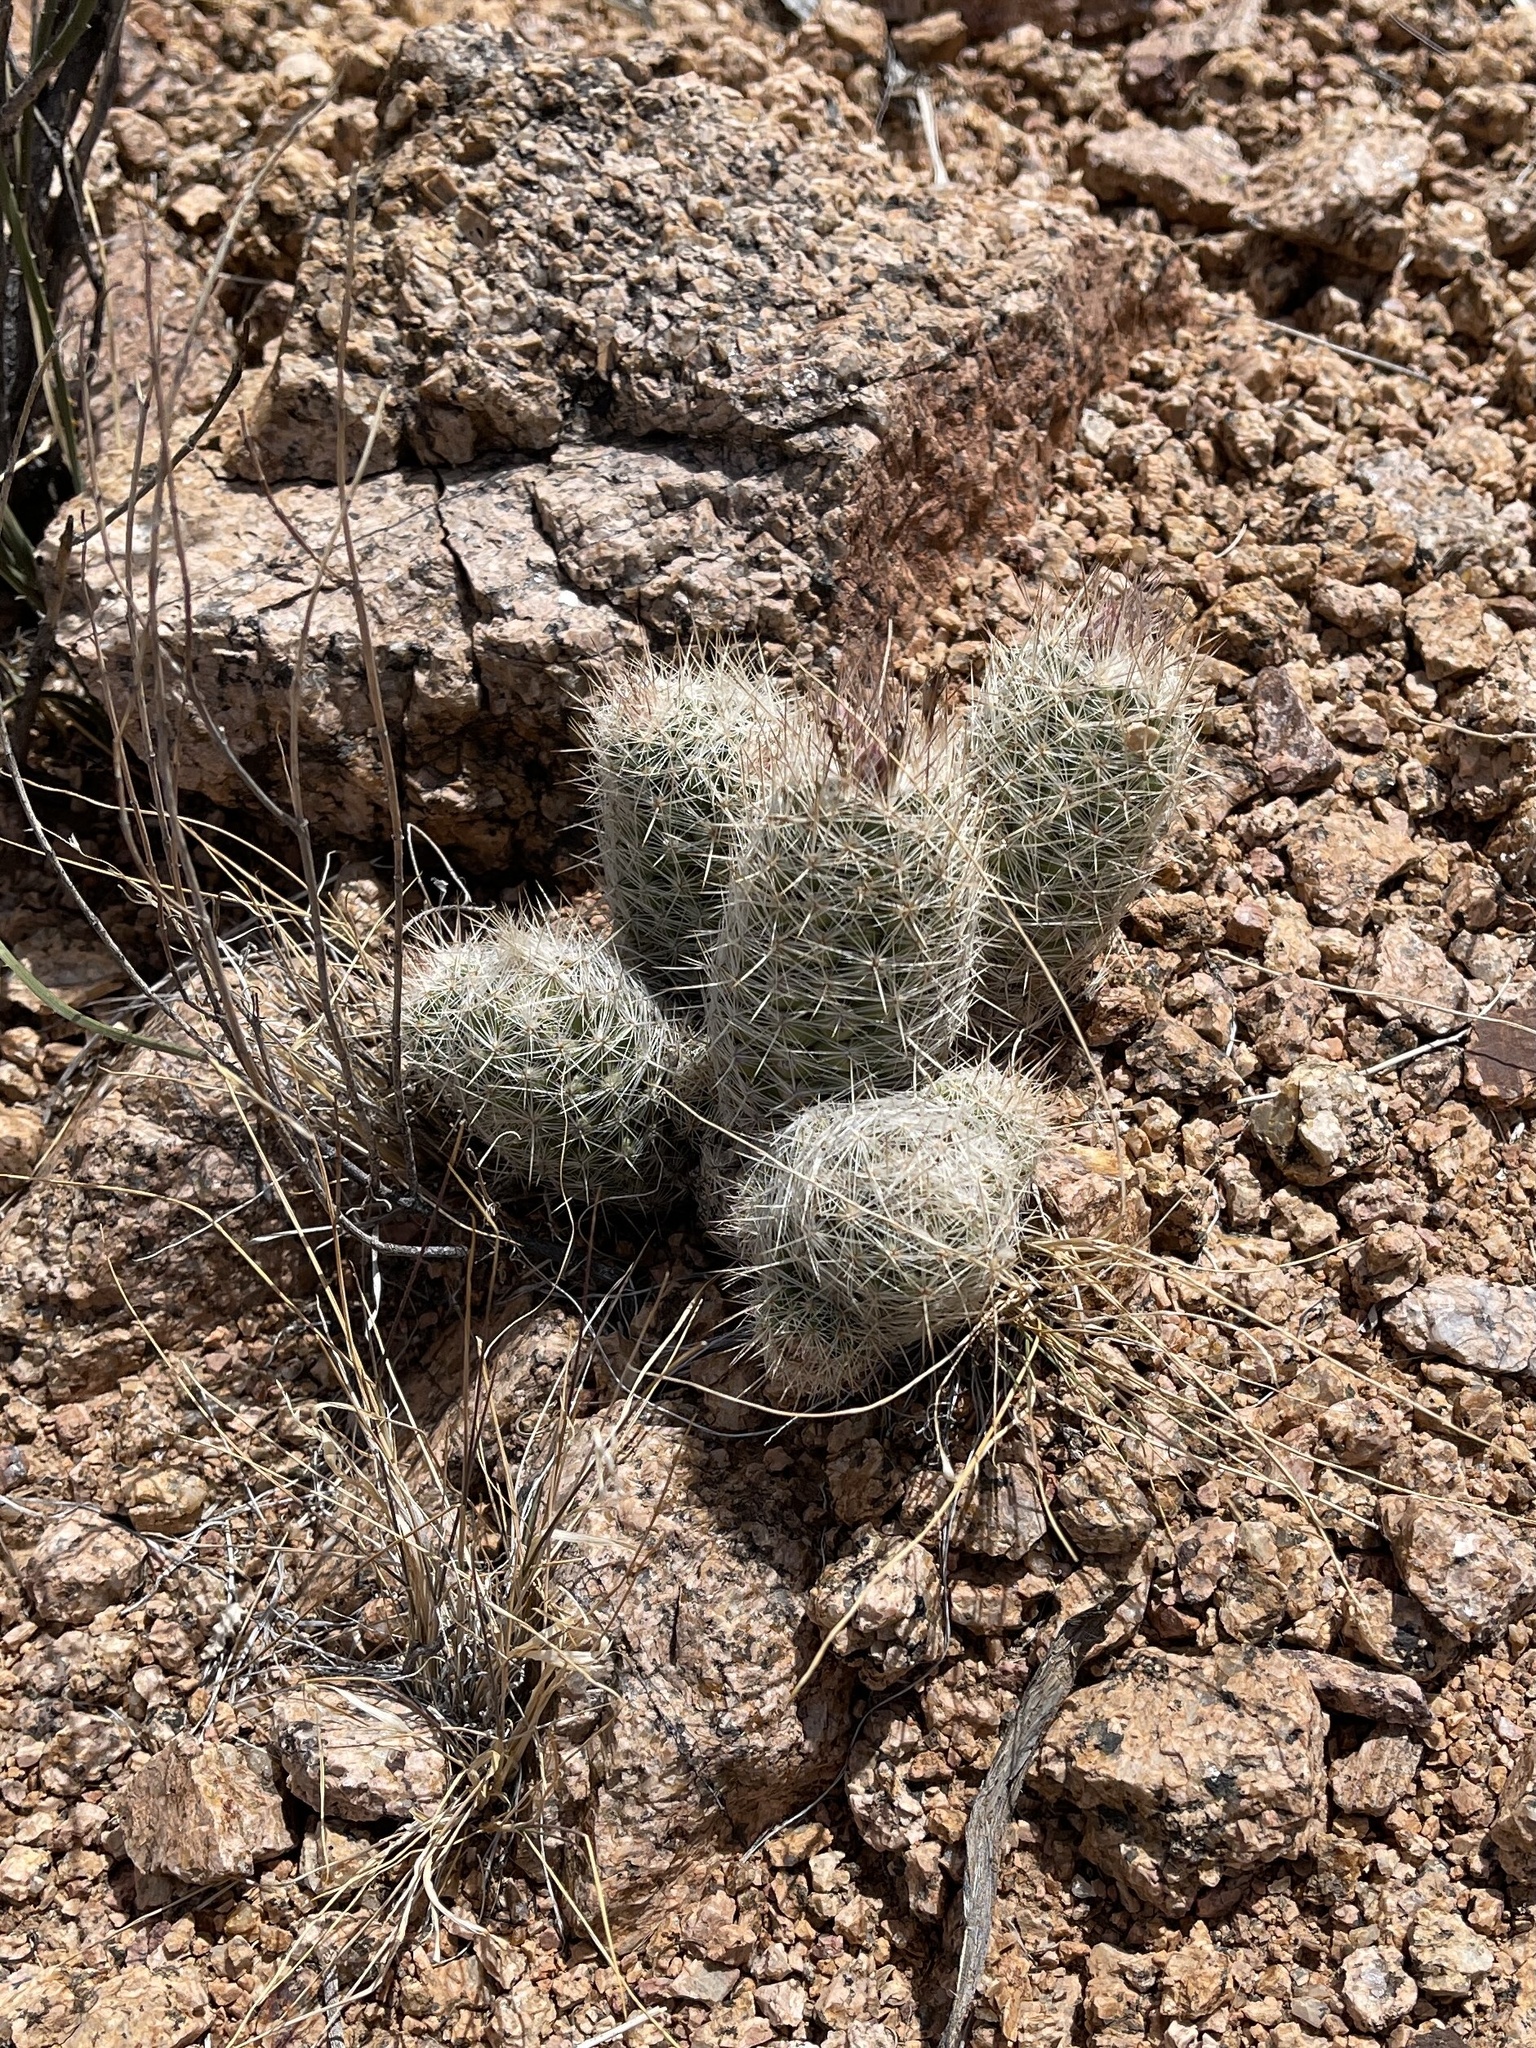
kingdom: Plantae
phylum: Tracheophyta
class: Magnoliopsida
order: Caryophyllales
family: Cactaceae
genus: Pelecyphora
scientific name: Pelecyphora tuberculosa
